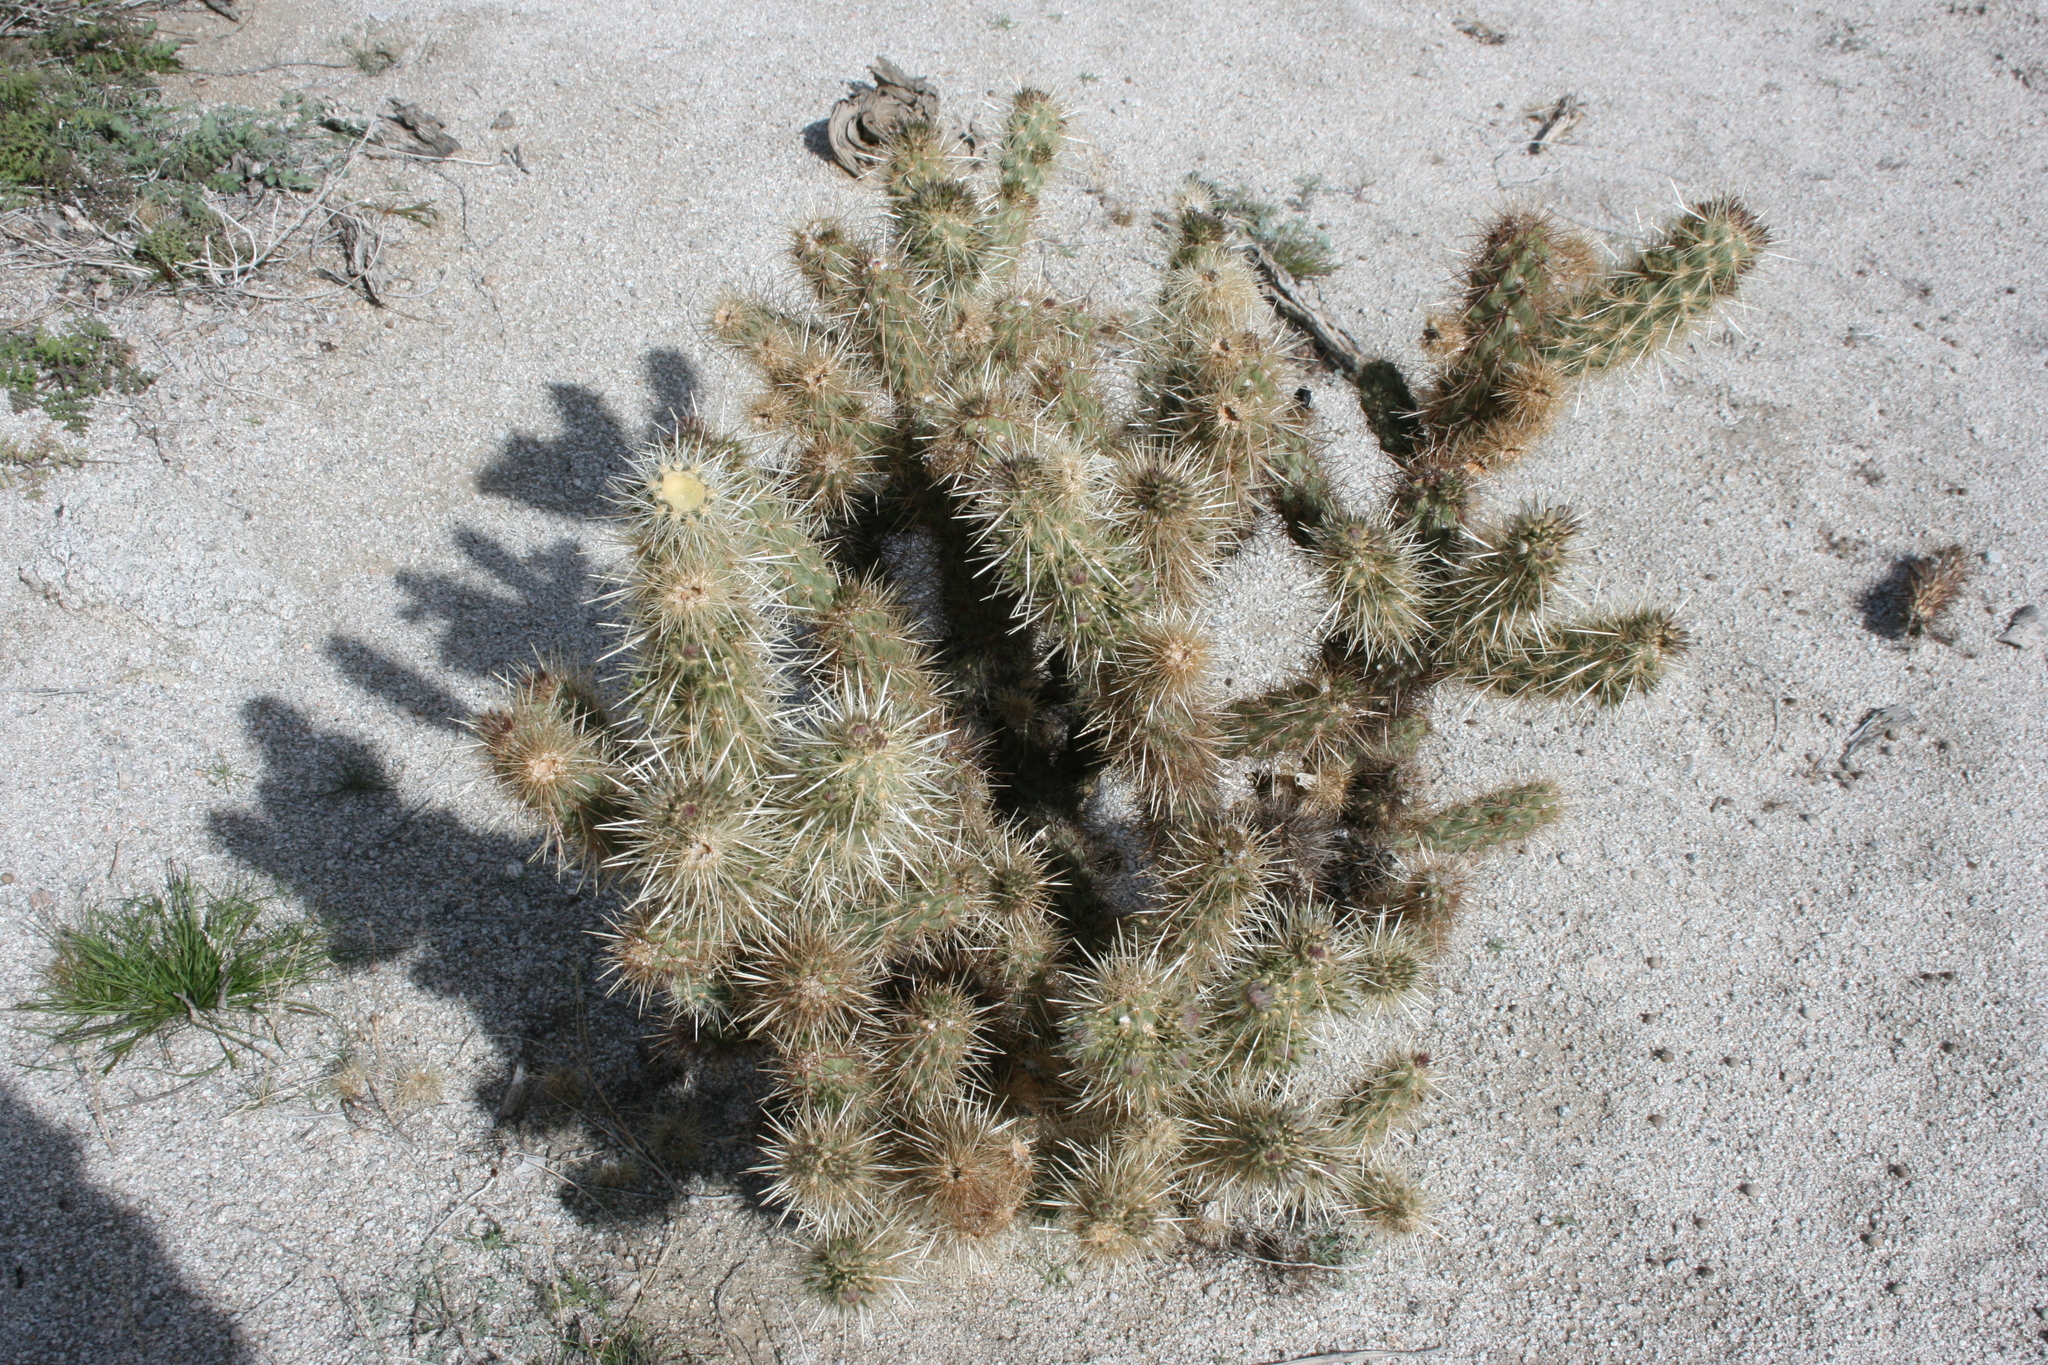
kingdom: Plantae
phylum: Tracheophyta
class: Magnoliopsida
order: Caryophyllales
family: Cactaceae
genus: Cylindropuntia
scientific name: Cylindropuntia echinocarpa
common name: Ground cholla
